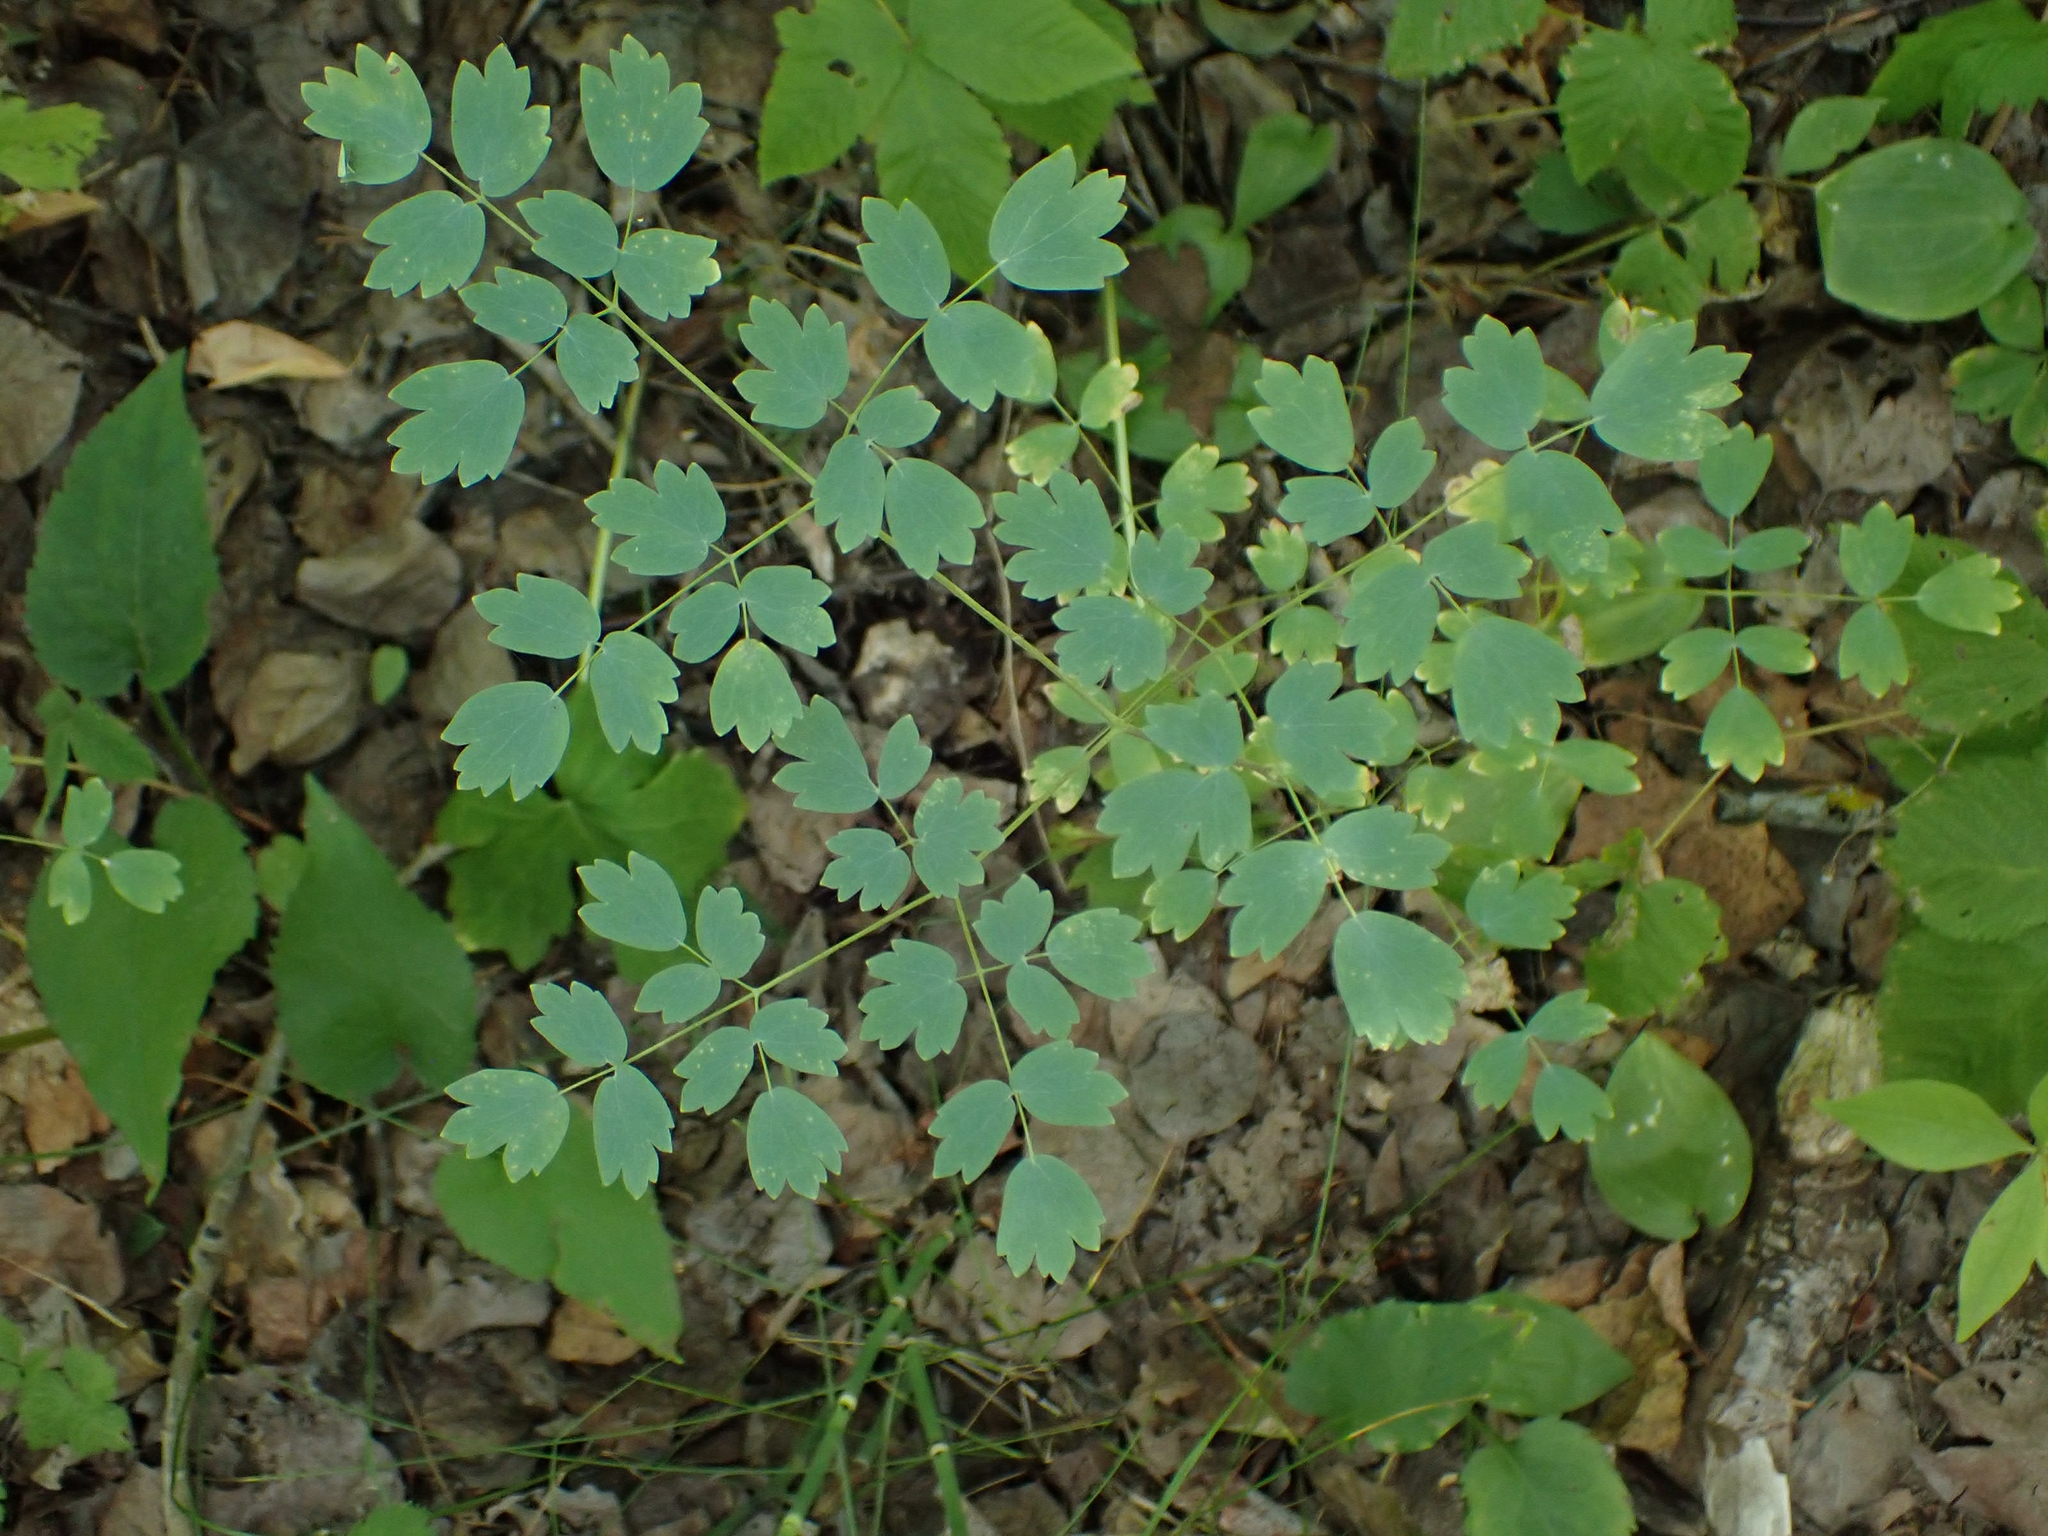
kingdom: Plantae
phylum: Tracheophyta
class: Magnoliopsida
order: Ranunculales
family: Ranunculaceae
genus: Thalictrum
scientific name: Thalictrum venulosum
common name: Early meadow-rue
